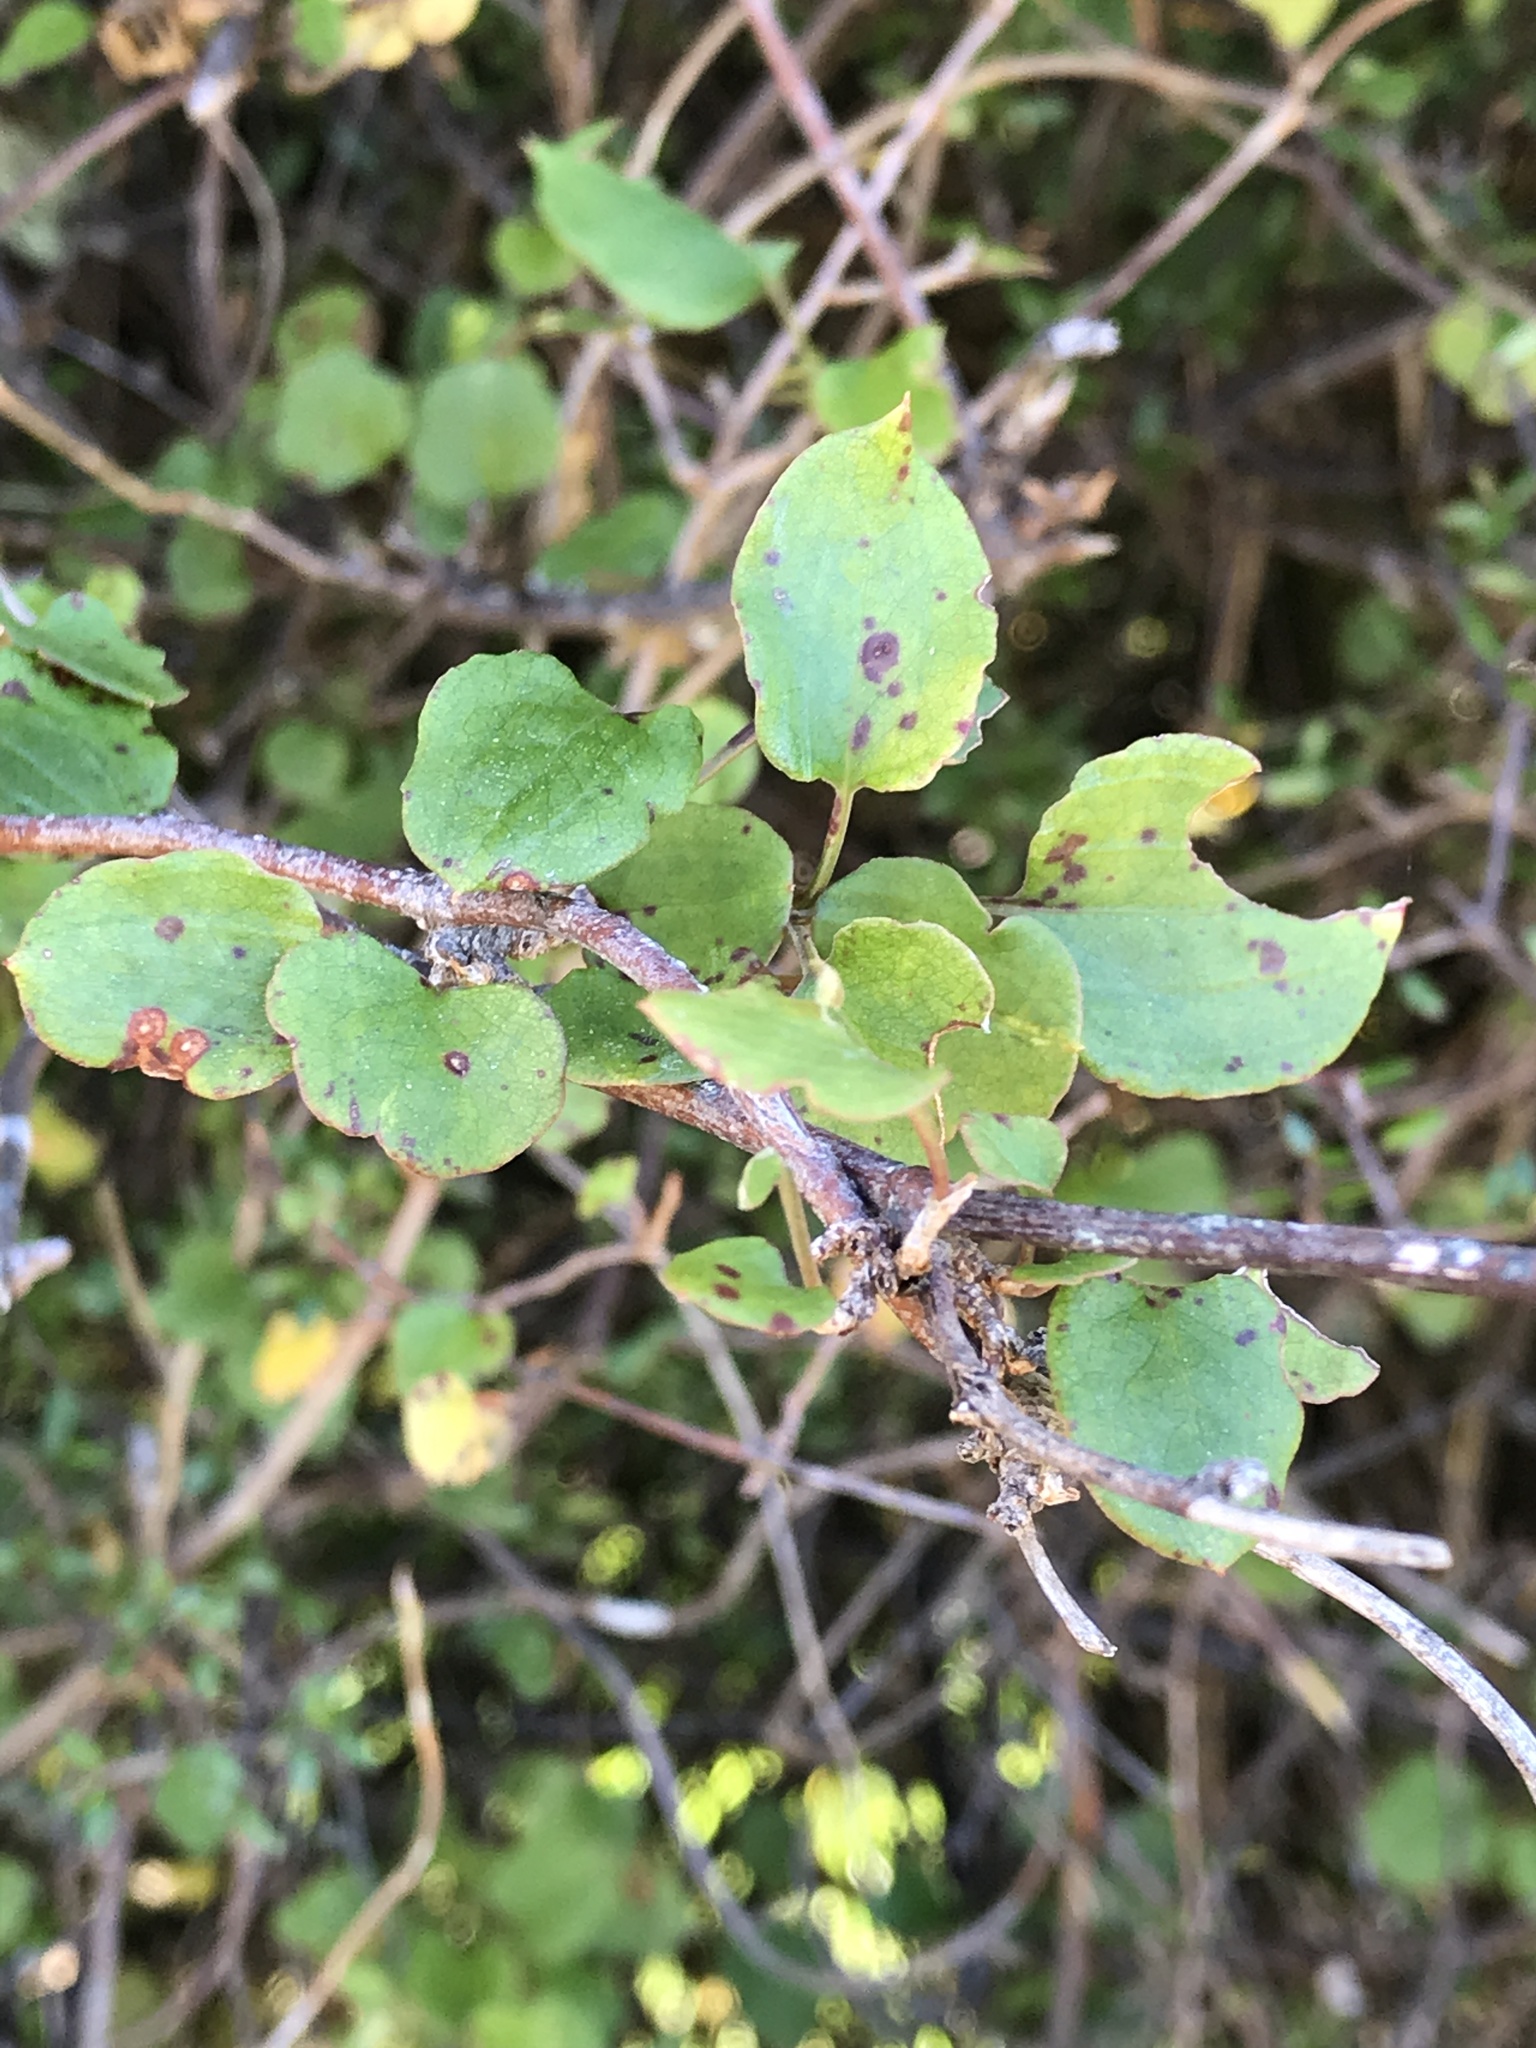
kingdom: Plantae
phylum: Tracheophyta
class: Magnoliopsida
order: Caryophyllales
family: Polygonaceae
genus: Muehlenbeckia
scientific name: Muehlenbeckia australis
